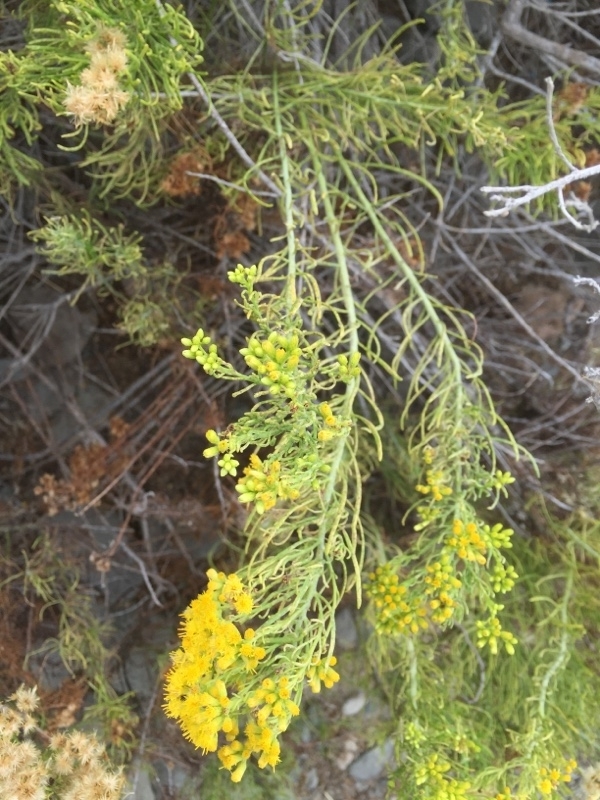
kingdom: Plantae
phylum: Tracheophyta
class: Magnoliopsida
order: Asterales
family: Asteraceae
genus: Schizogyne
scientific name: Schizogyne glaberrima
